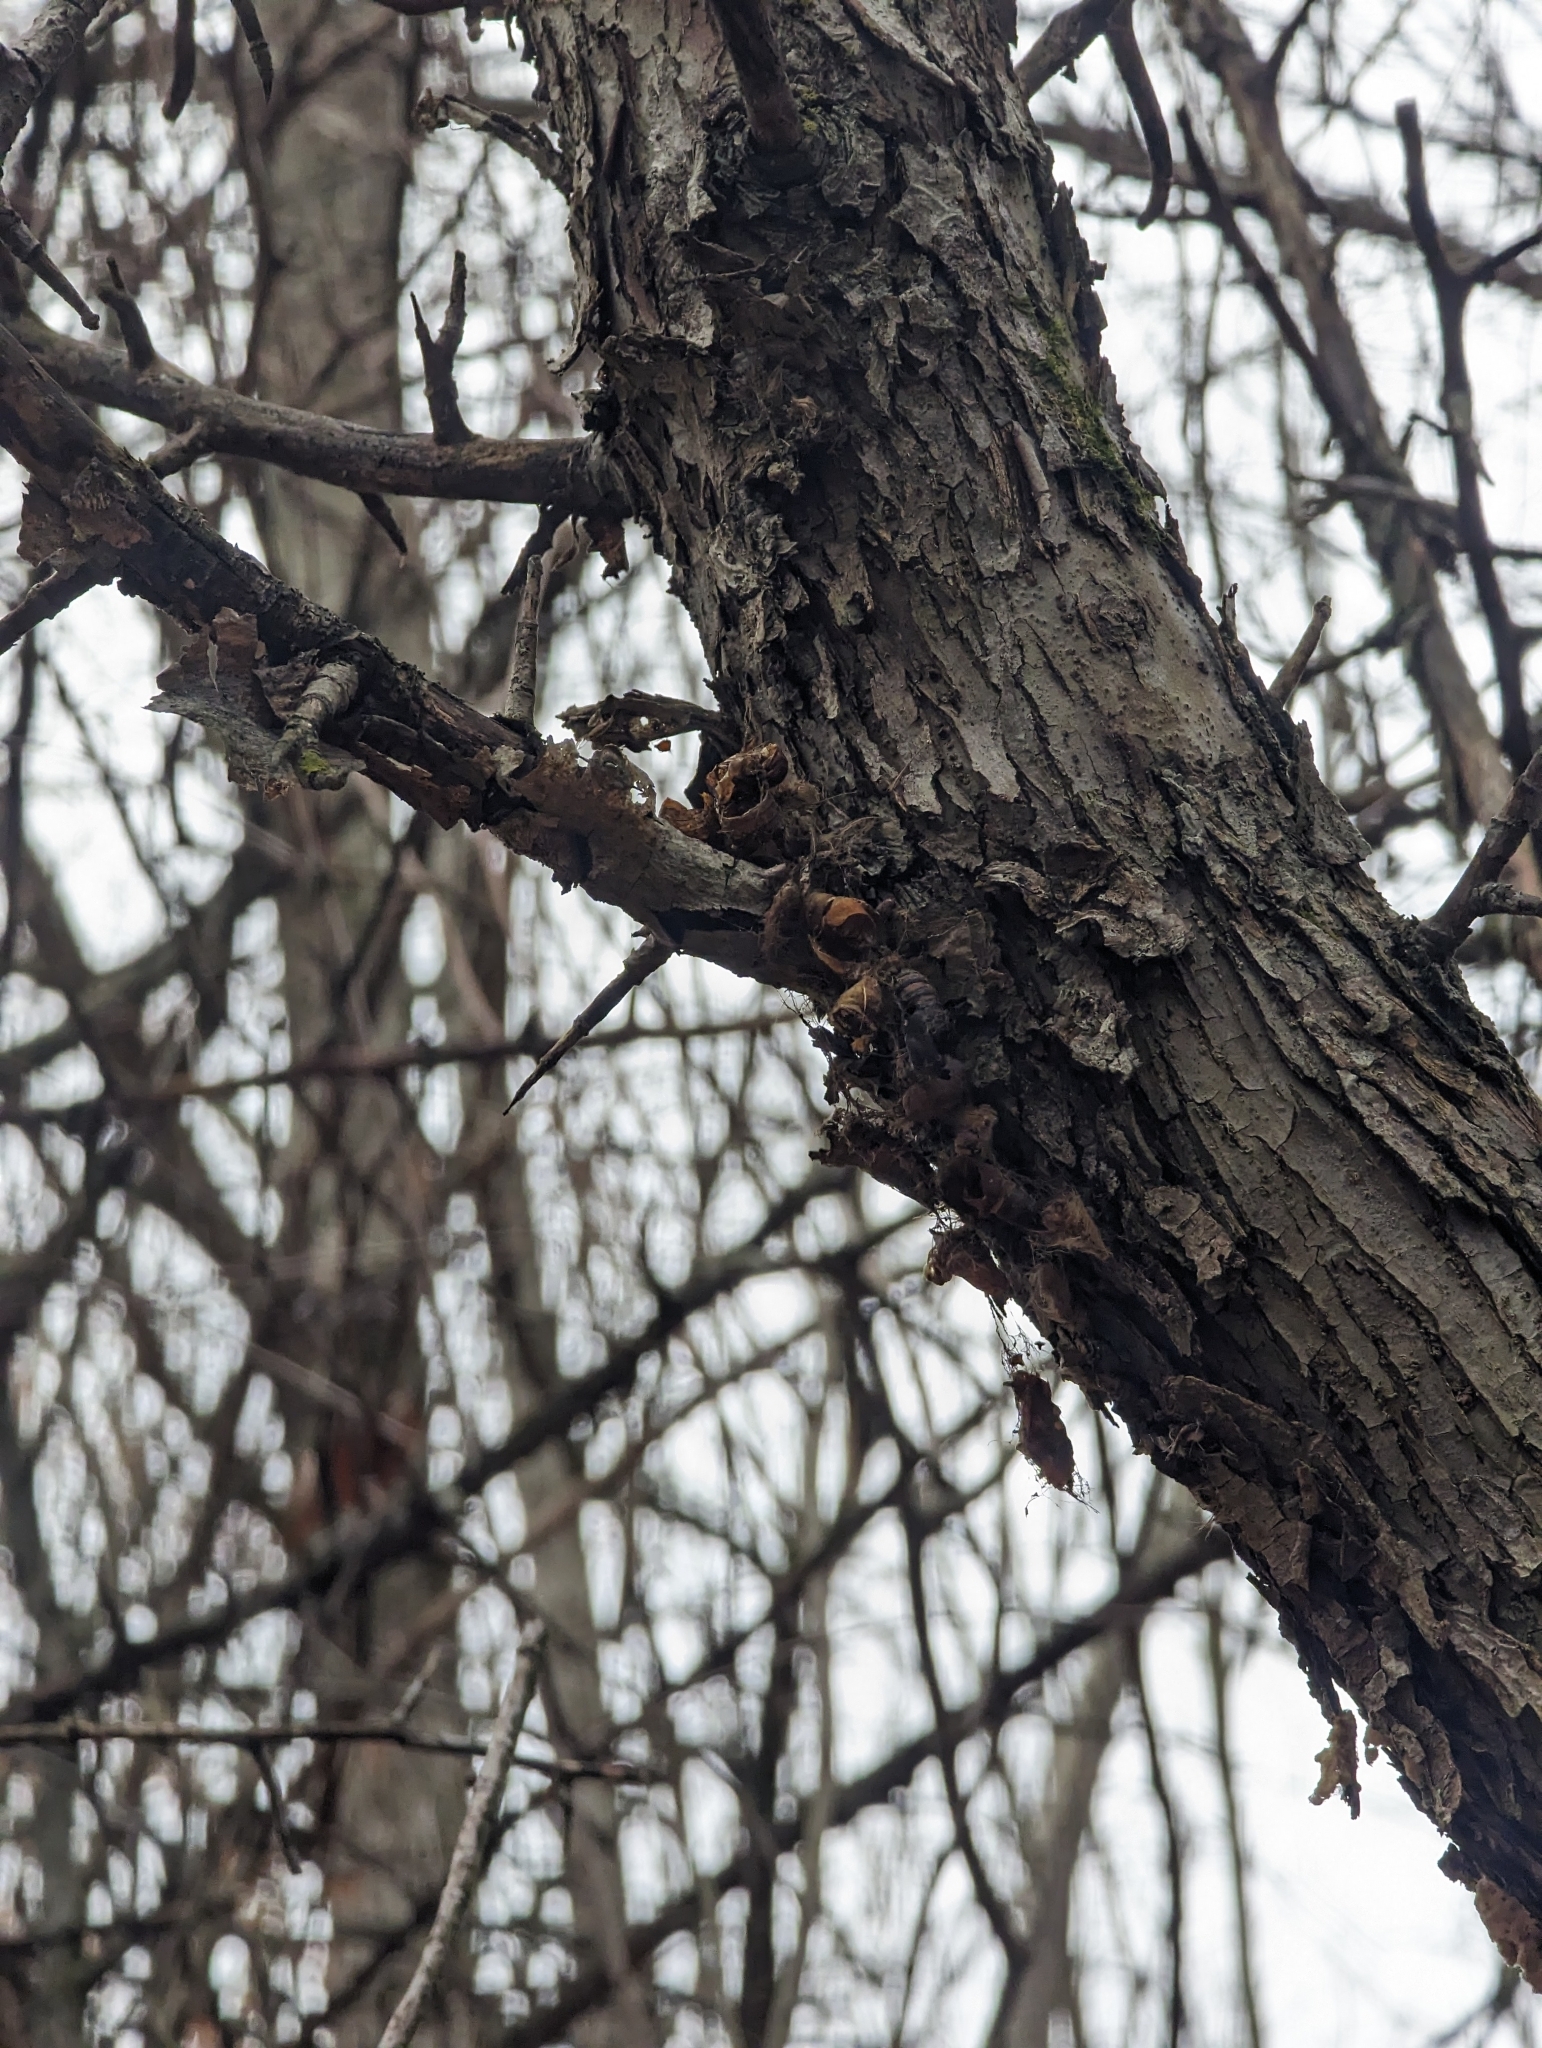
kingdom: Animalia
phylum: Arthropoda
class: Insecta
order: Lepidoptera
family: Erebidae
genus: Lymantria
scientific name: Lymantria dispar
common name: Gypsy moth
